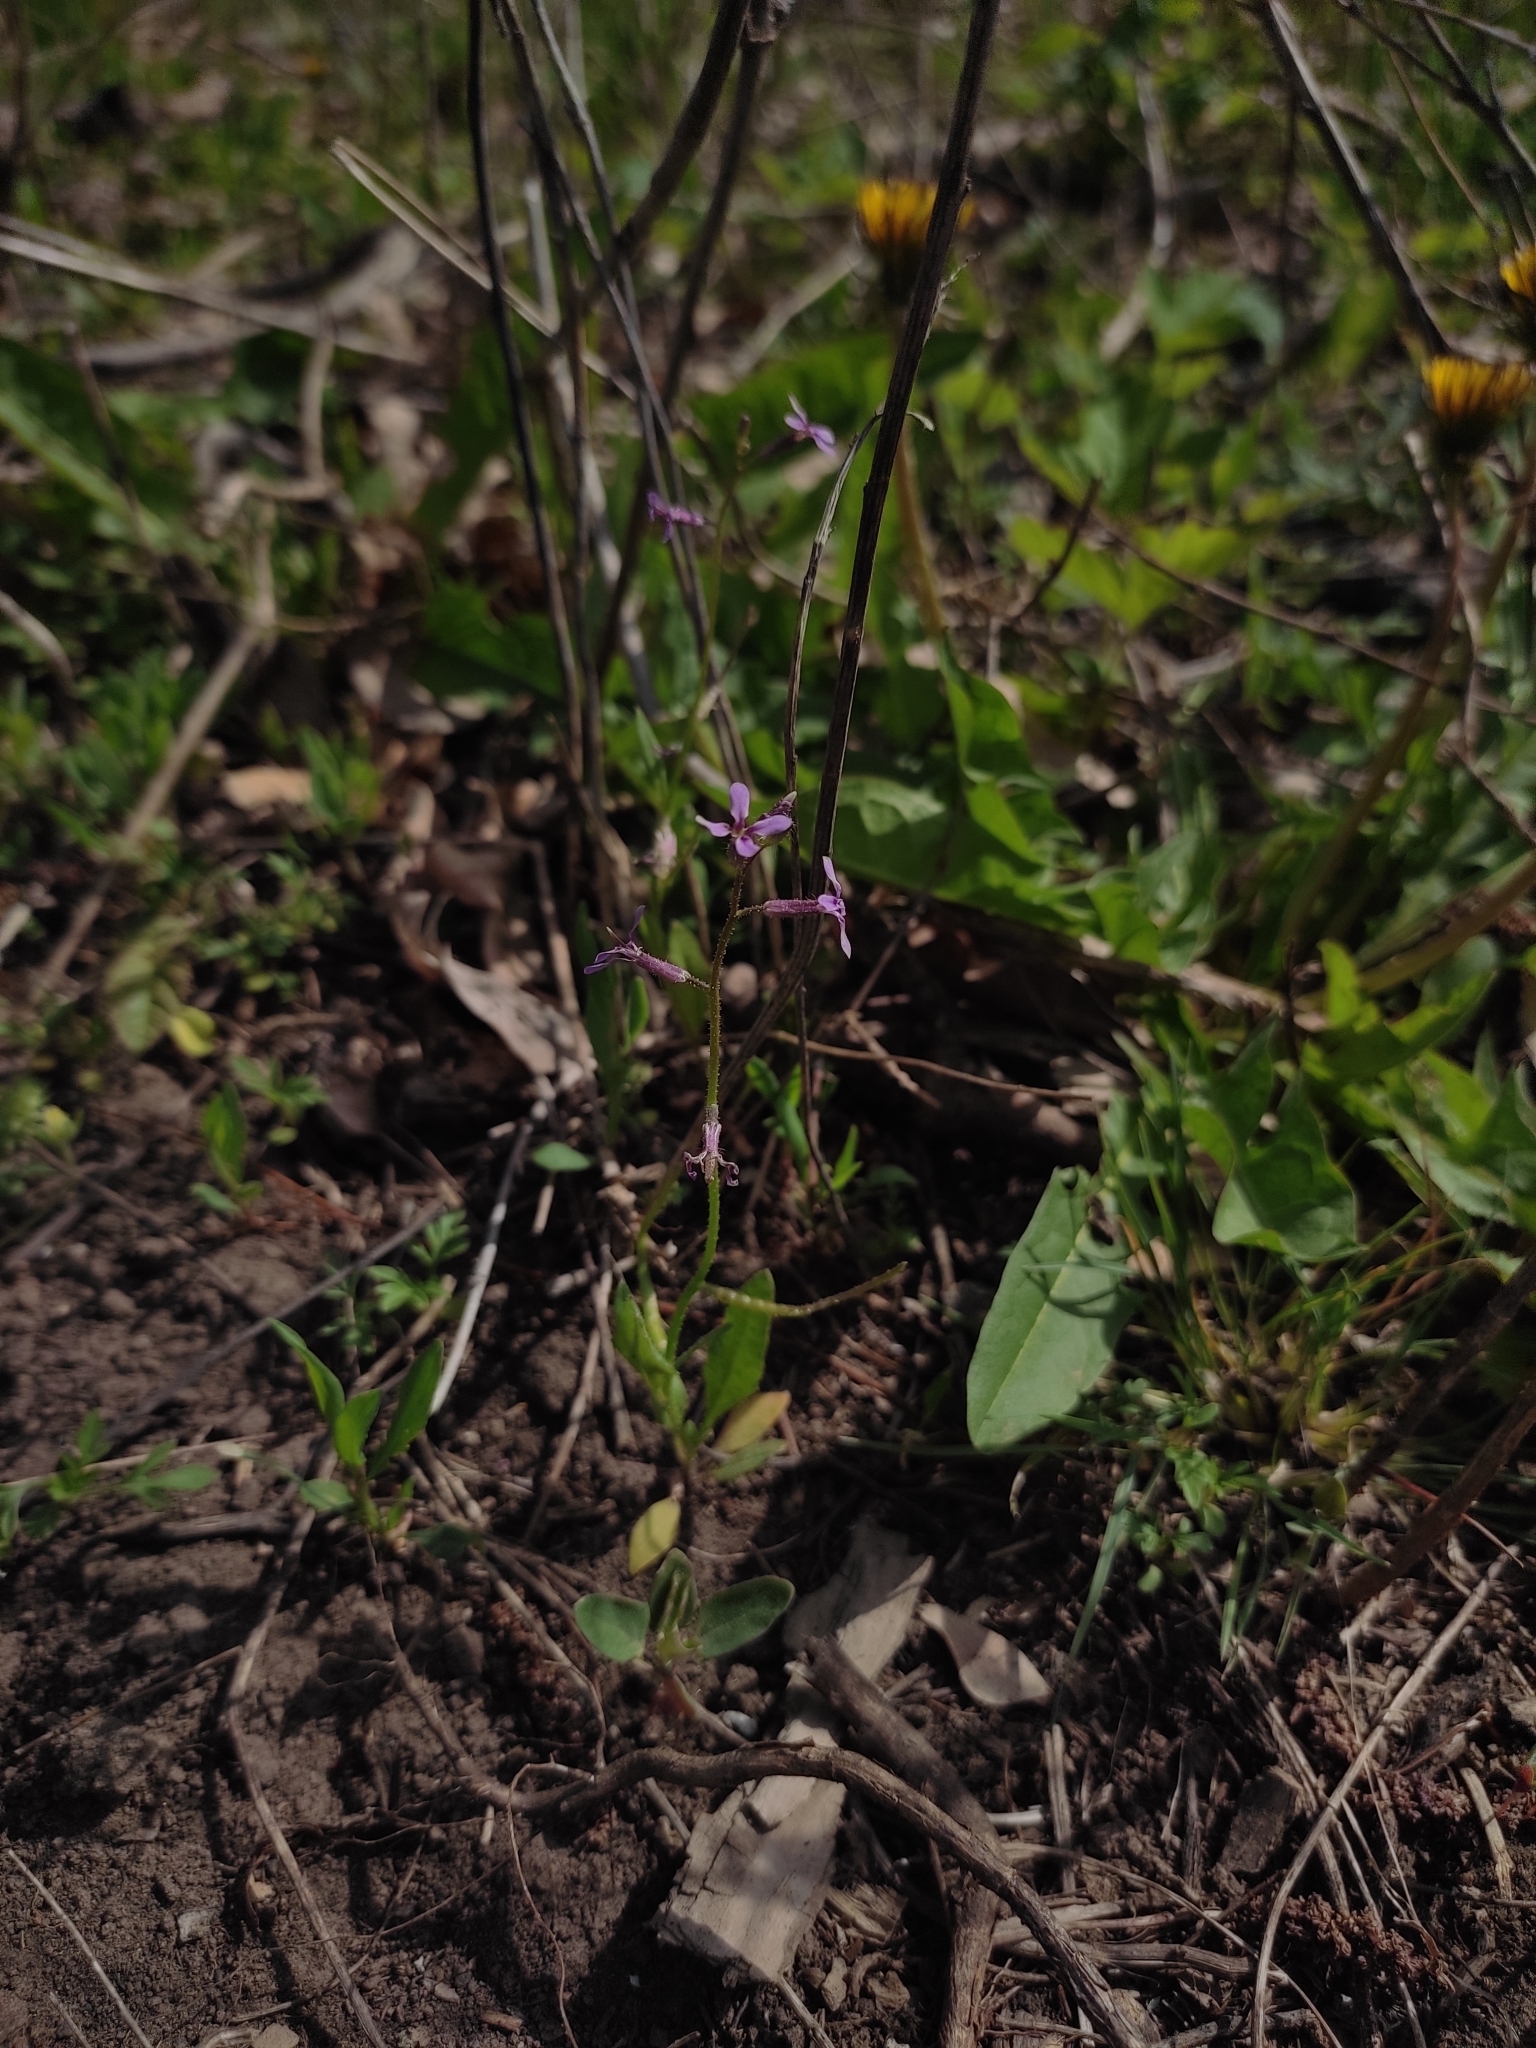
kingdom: Plantae
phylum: Tracheophyta
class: Magnoliopsida
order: Brassicales
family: Brassicaceae
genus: Chorispora
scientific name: Chorispora tenella
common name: Crossflower
